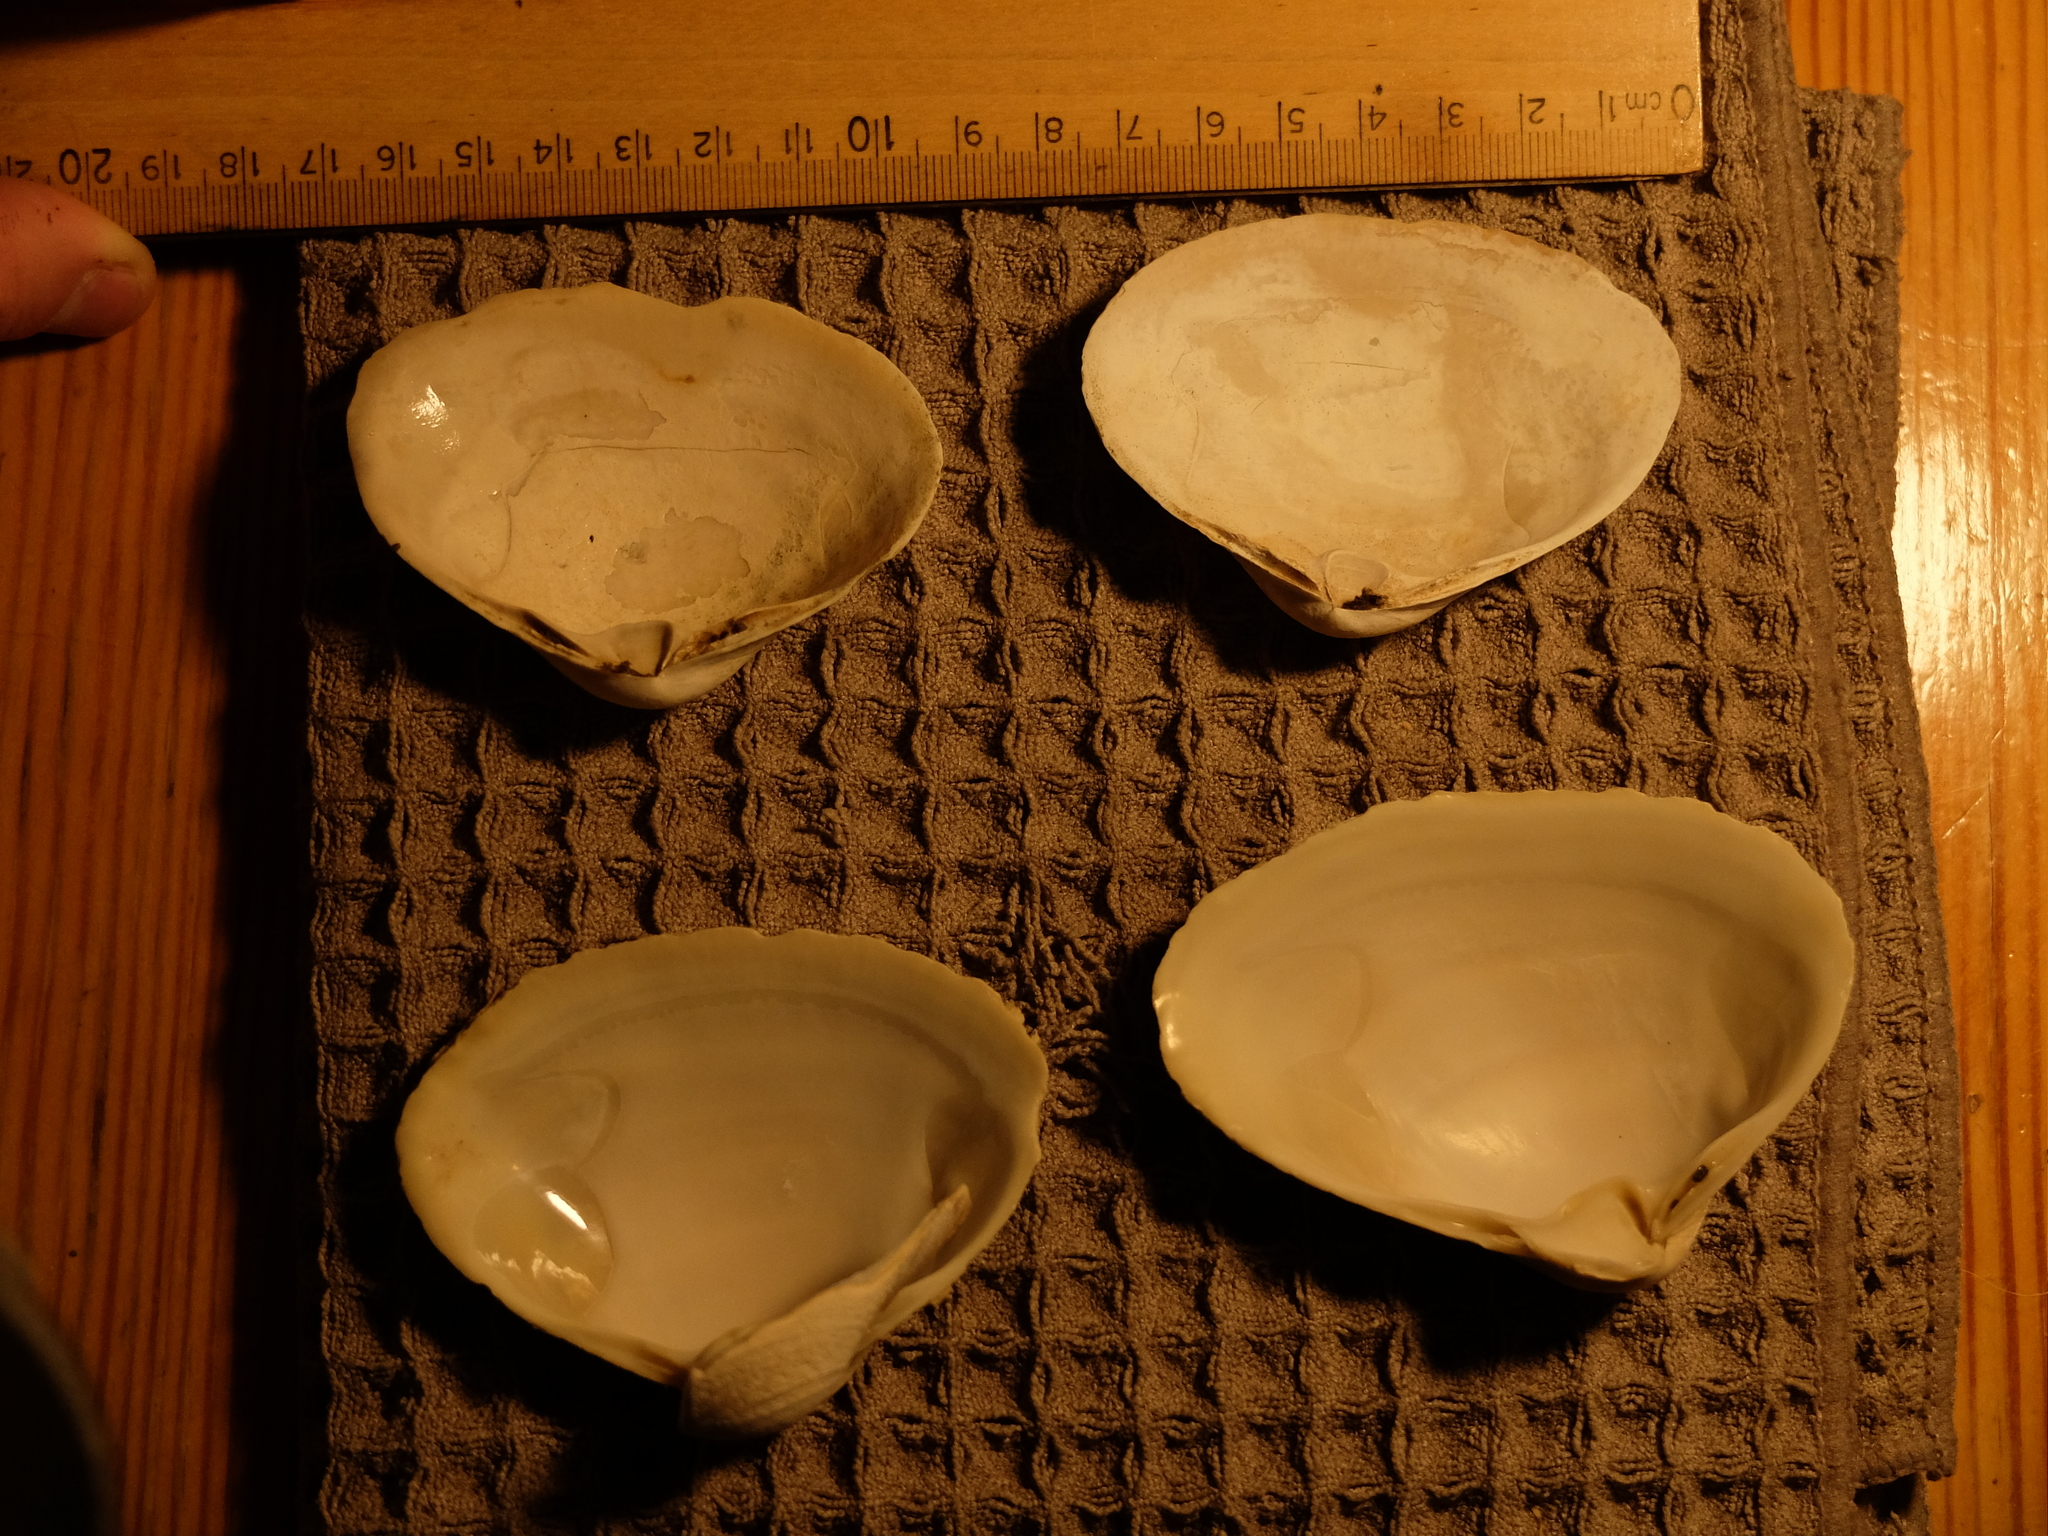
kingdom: Animalia
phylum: Mollusca
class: Bivalvia
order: Venerida
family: Mactridae
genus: Spisula
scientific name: Spisula solidissima
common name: Atlantic surf clam
